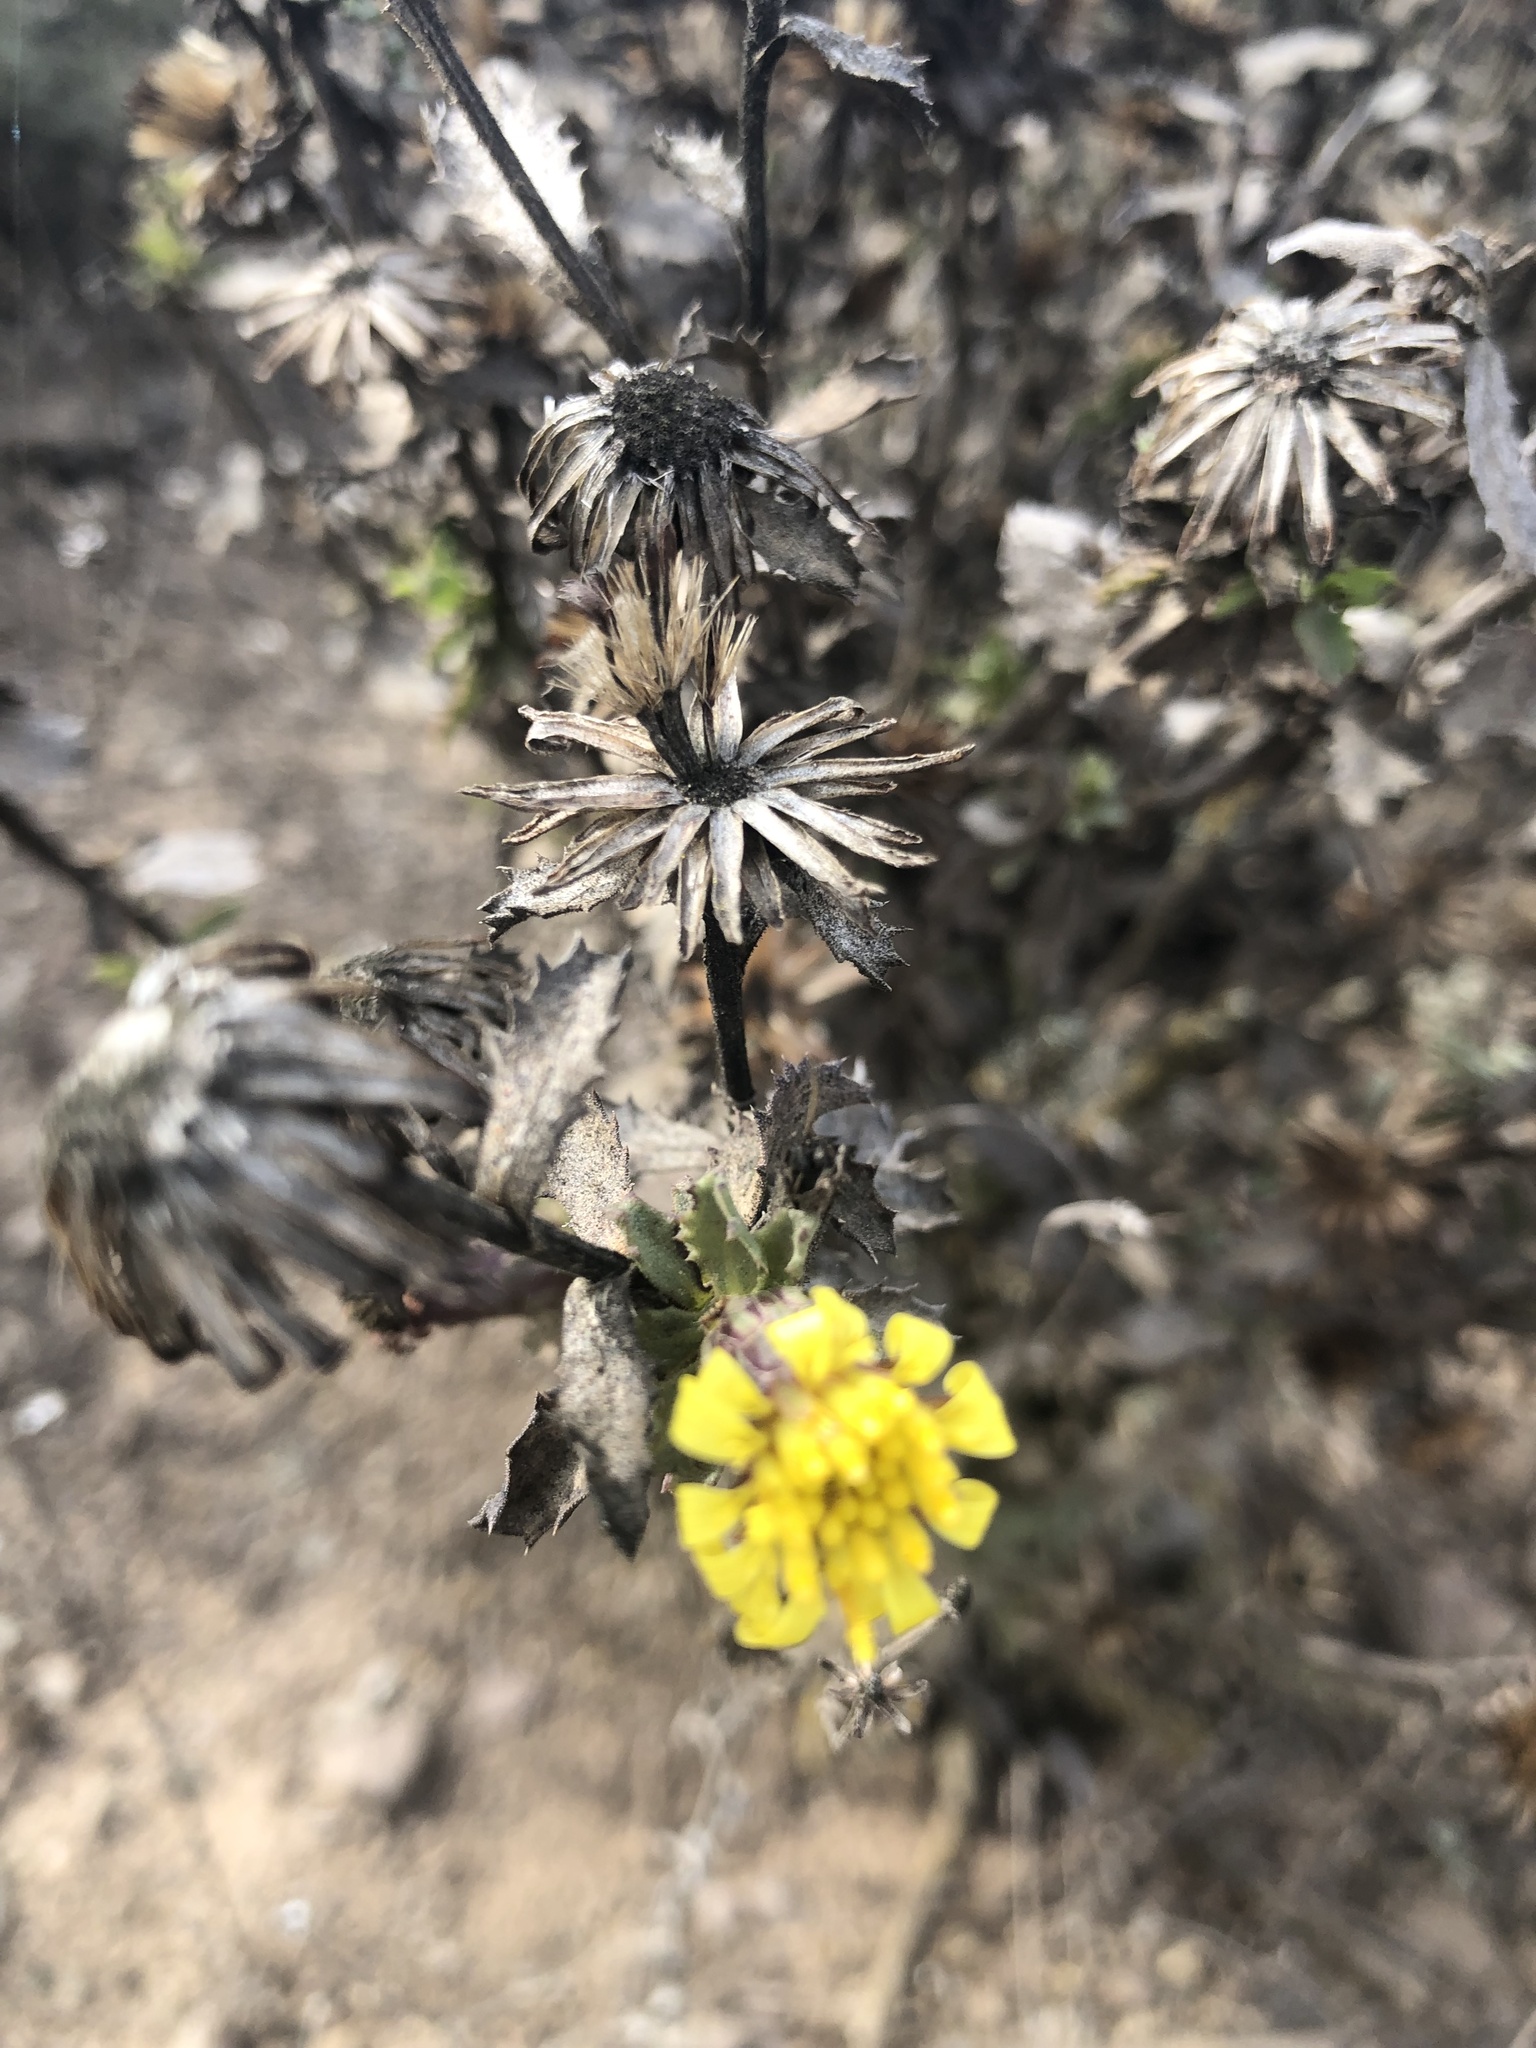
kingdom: Plantae
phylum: Tracheophyta
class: Magnoliopsida
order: Asterales
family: Asteraceae
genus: Haplopappus
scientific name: Haplopappus foliosus
